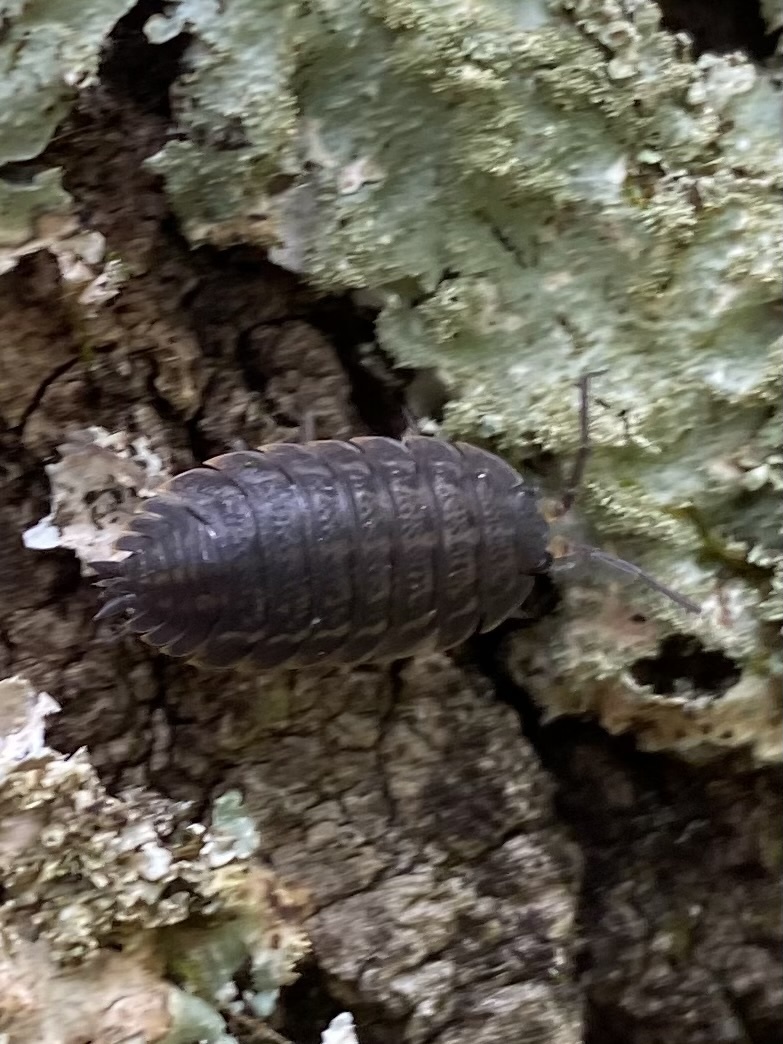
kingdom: Animalia
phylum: Arthropoda
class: Malacostraca
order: Isopoda
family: Trachelipodidae
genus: Trachelipus
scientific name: Trachelipus rathkii
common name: Isopod
